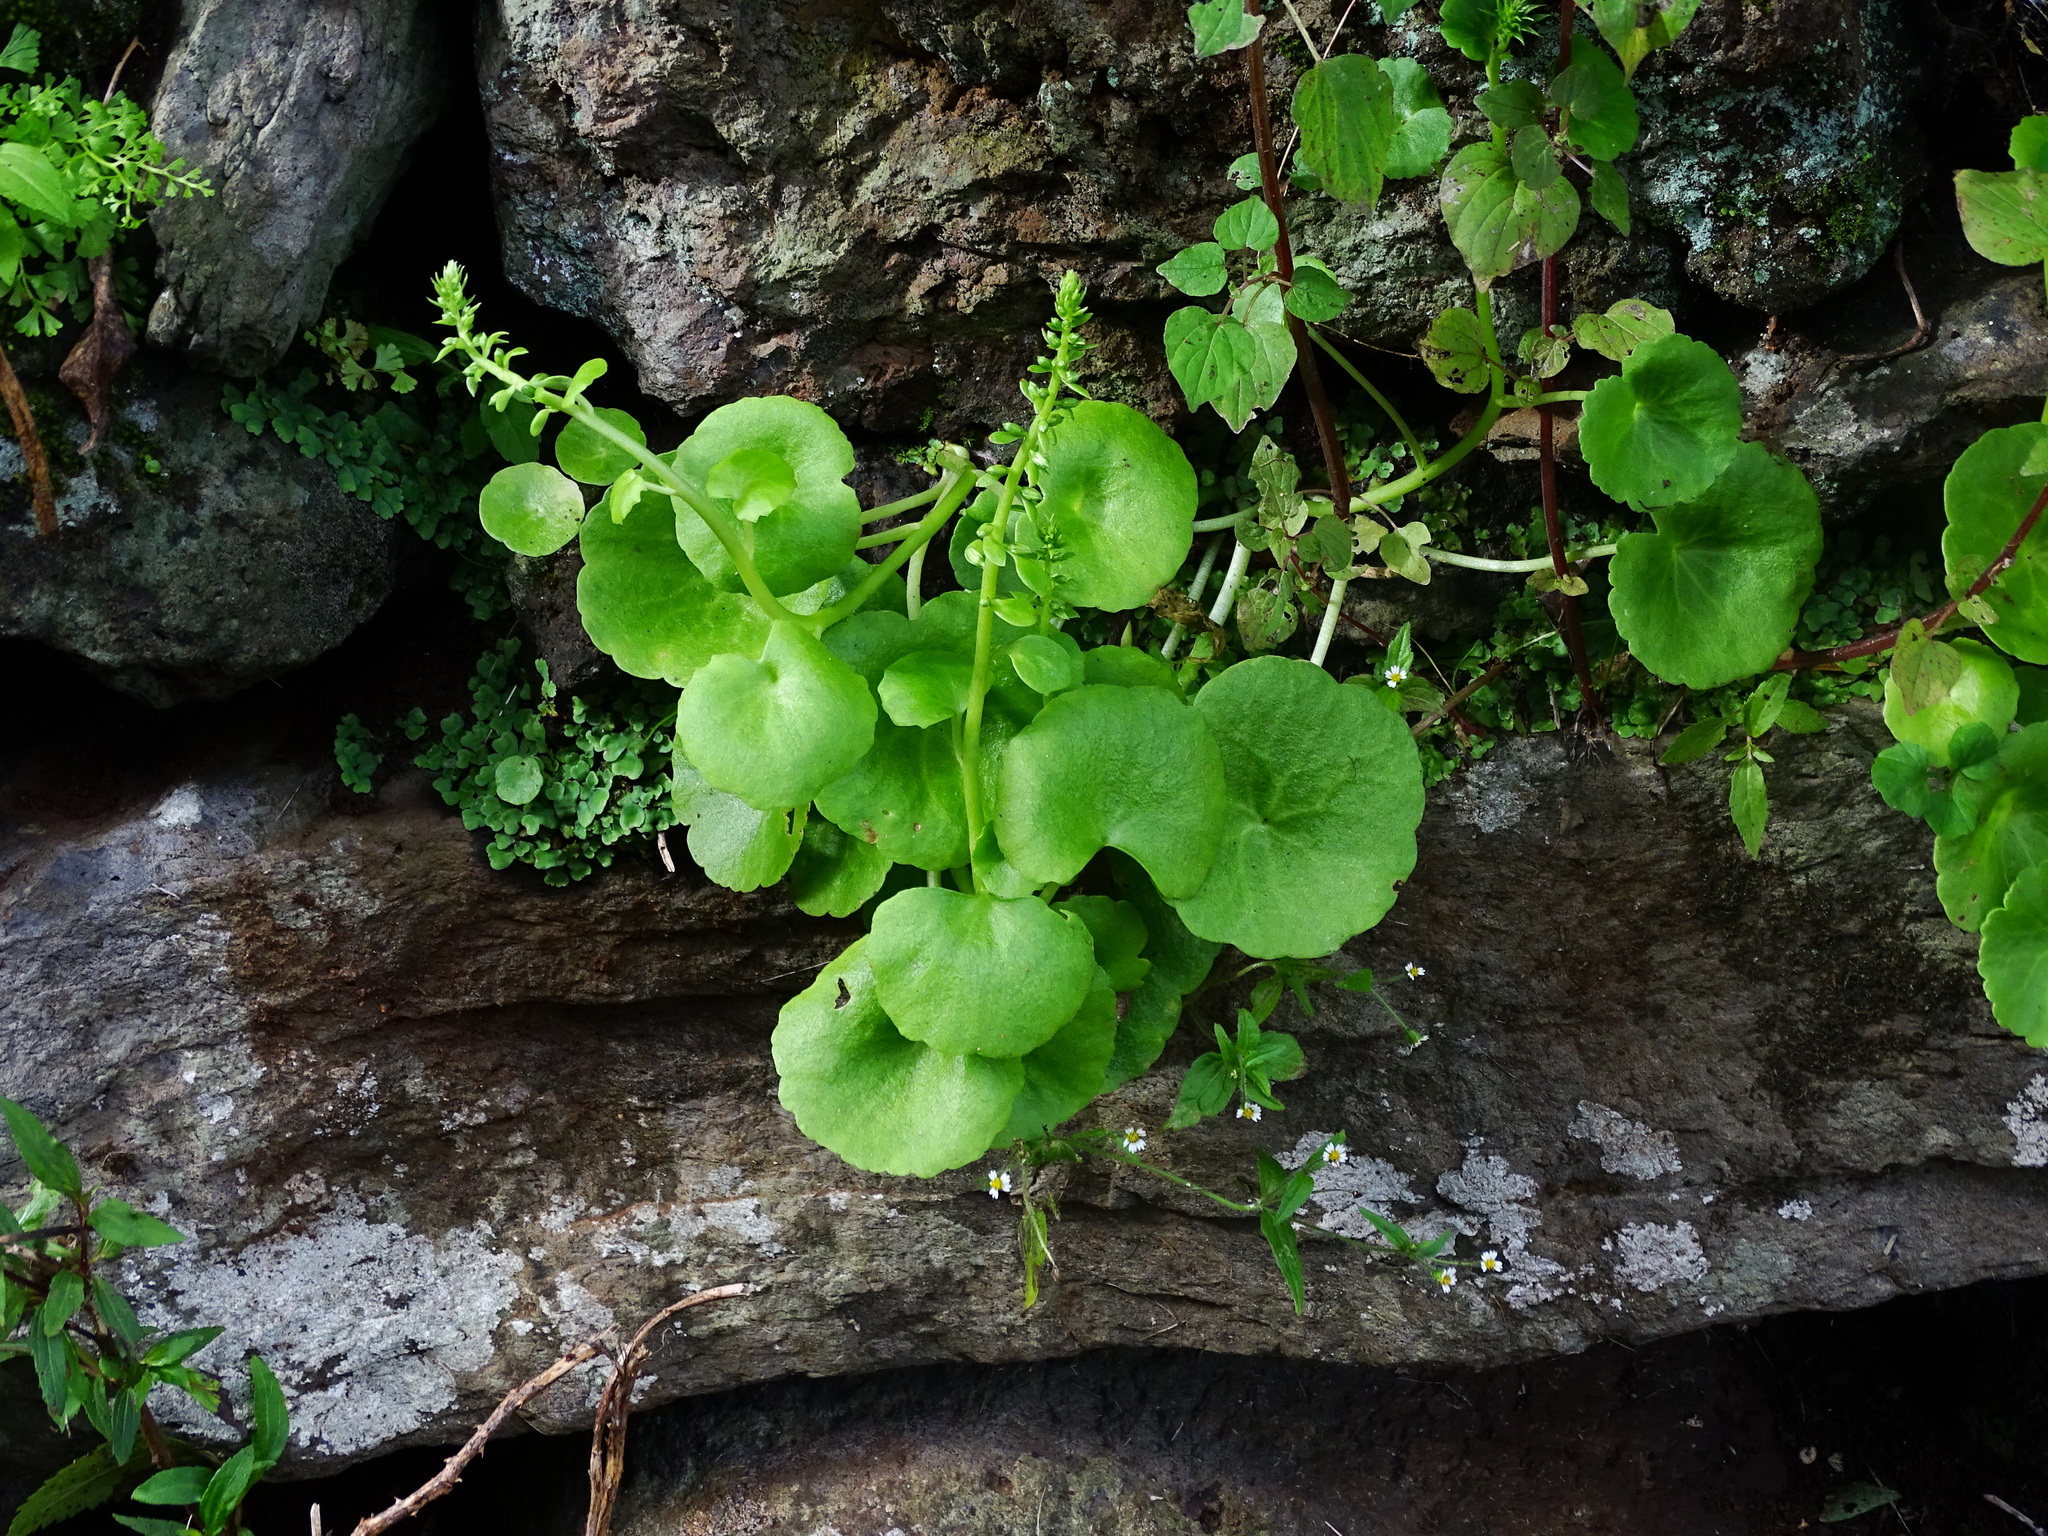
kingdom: Plantae
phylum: Tracheophyta
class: Magnoliopsida
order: Saxifragales
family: Crassulaceae
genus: Umbilicus
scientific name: Umbilicus horizontalis
